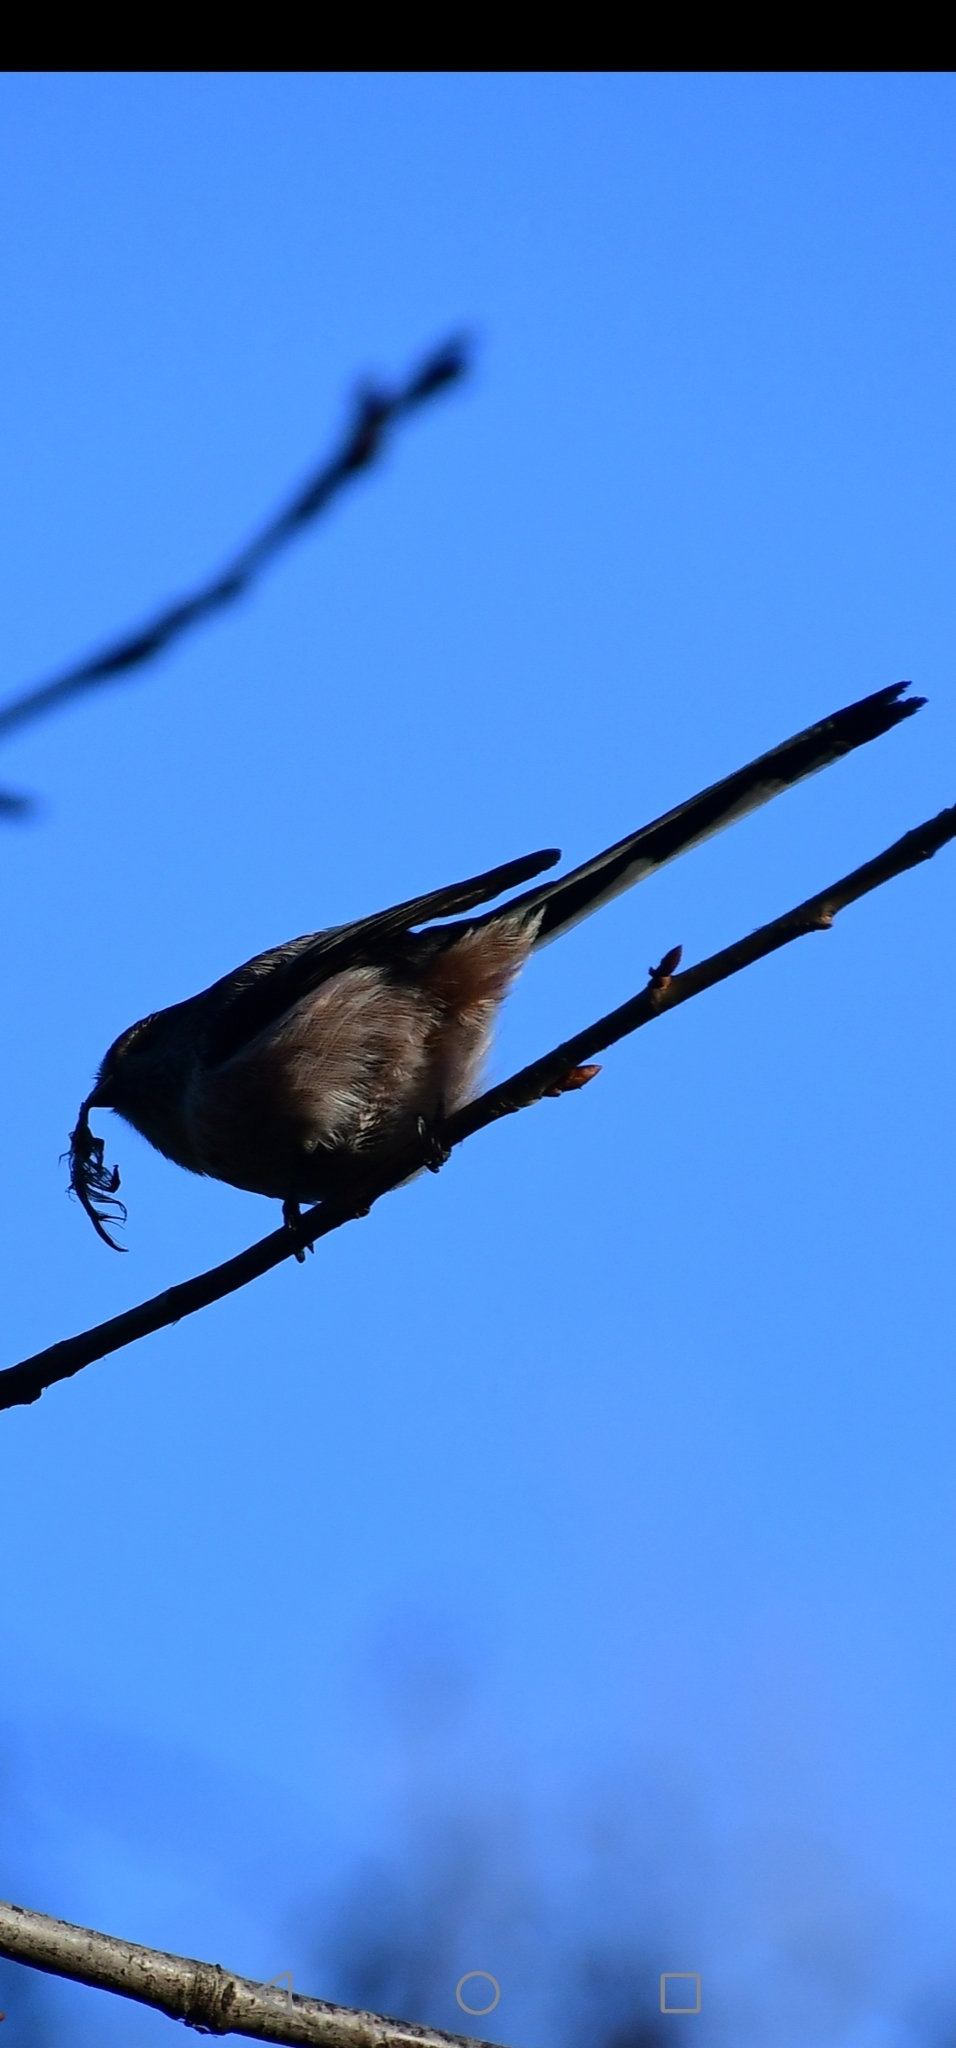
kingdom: Animalia
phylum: Chordata
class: Aves
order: Passeriformes
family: Aegithalidae
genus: Aegithalos
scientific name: Aegithalos caudatus
